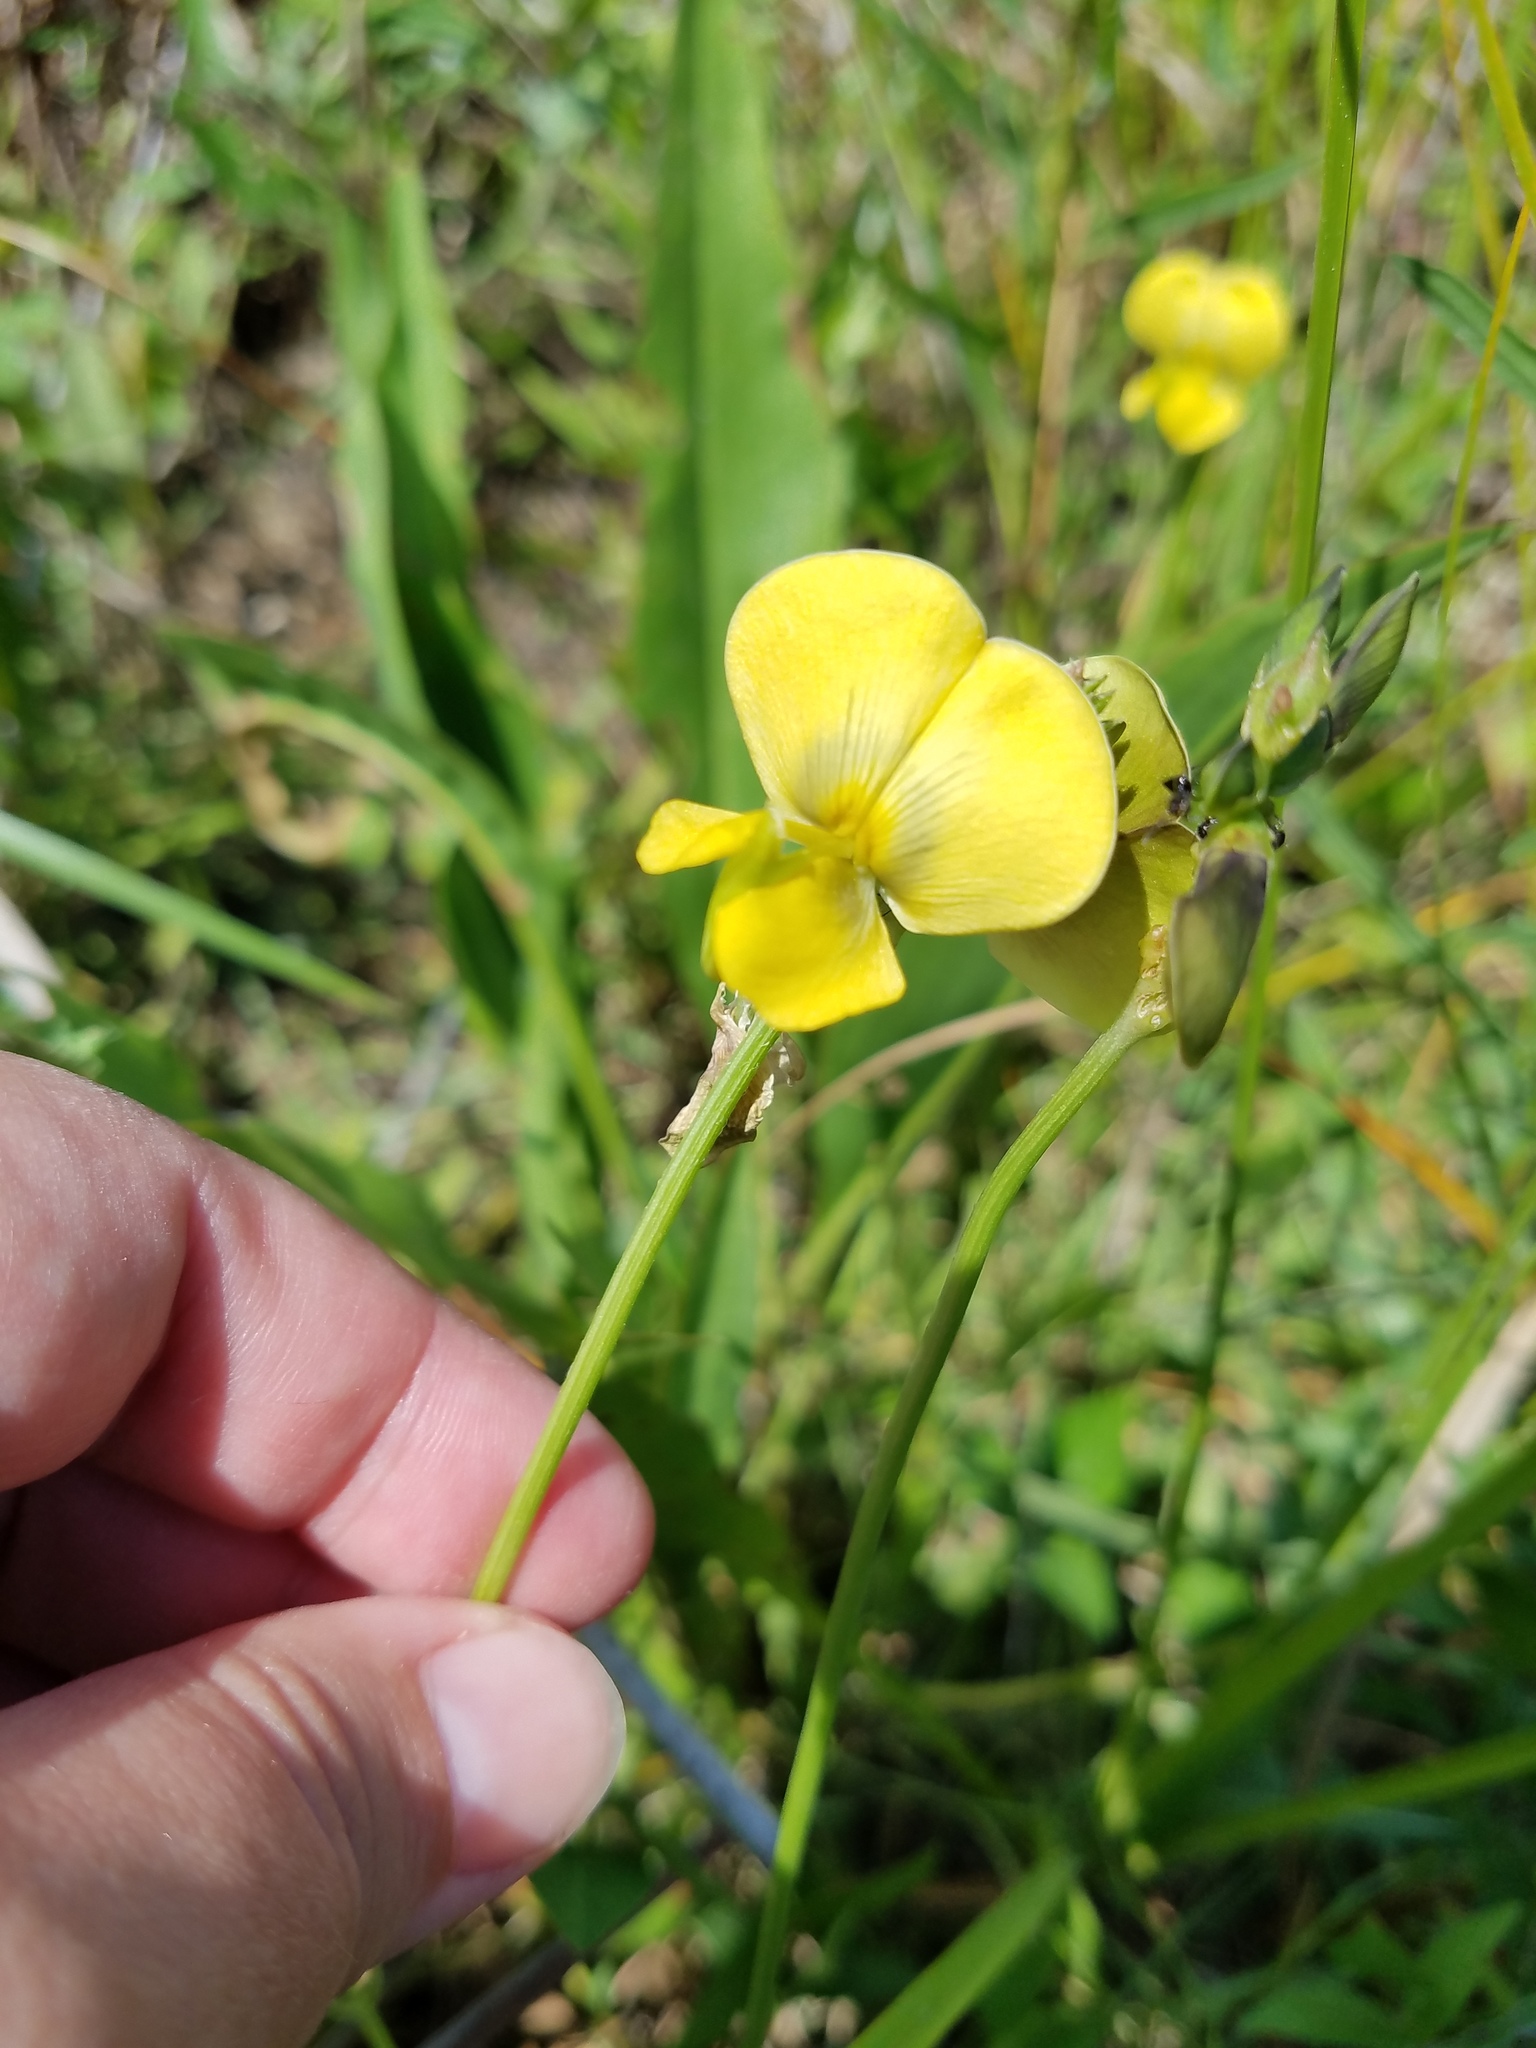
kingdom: Plantae
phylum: Tracheophyta
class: Magnoliopsida
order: Fabales
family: Fabaceae
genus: Vigna
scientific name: Vigna luteola
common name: Hairypod cowpea
